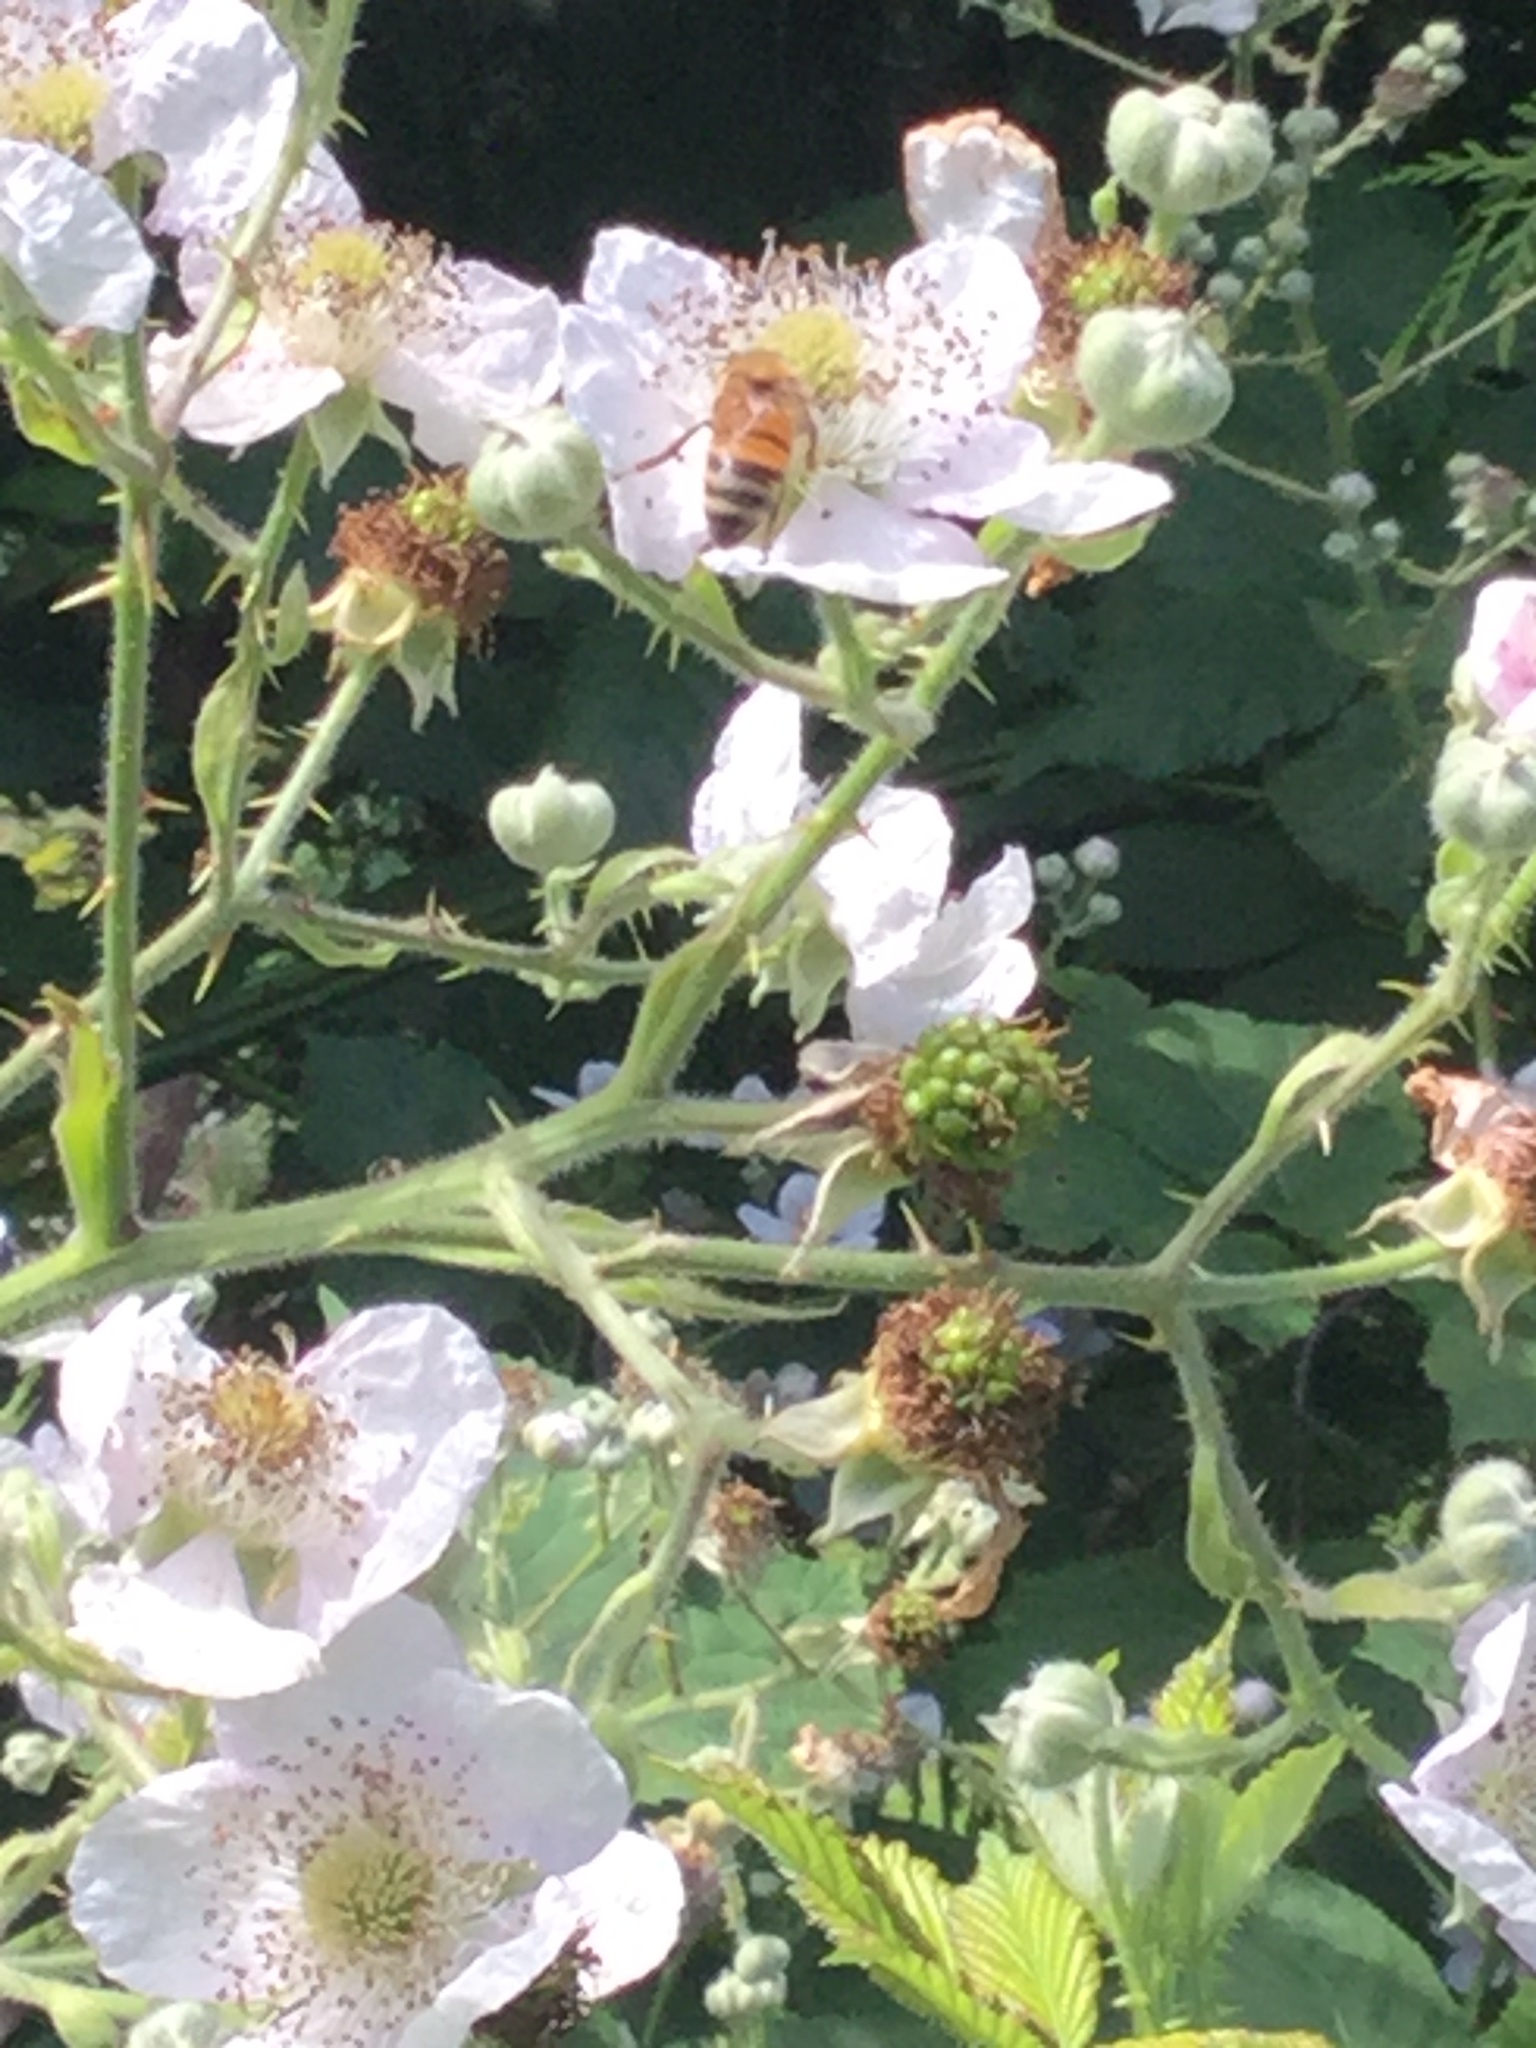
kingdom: Animalia
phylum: Arthropoda
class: Insecta
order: Hymenoptera
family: Apidae
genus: Apis
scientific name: Apis mellifera
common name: Honey bee
